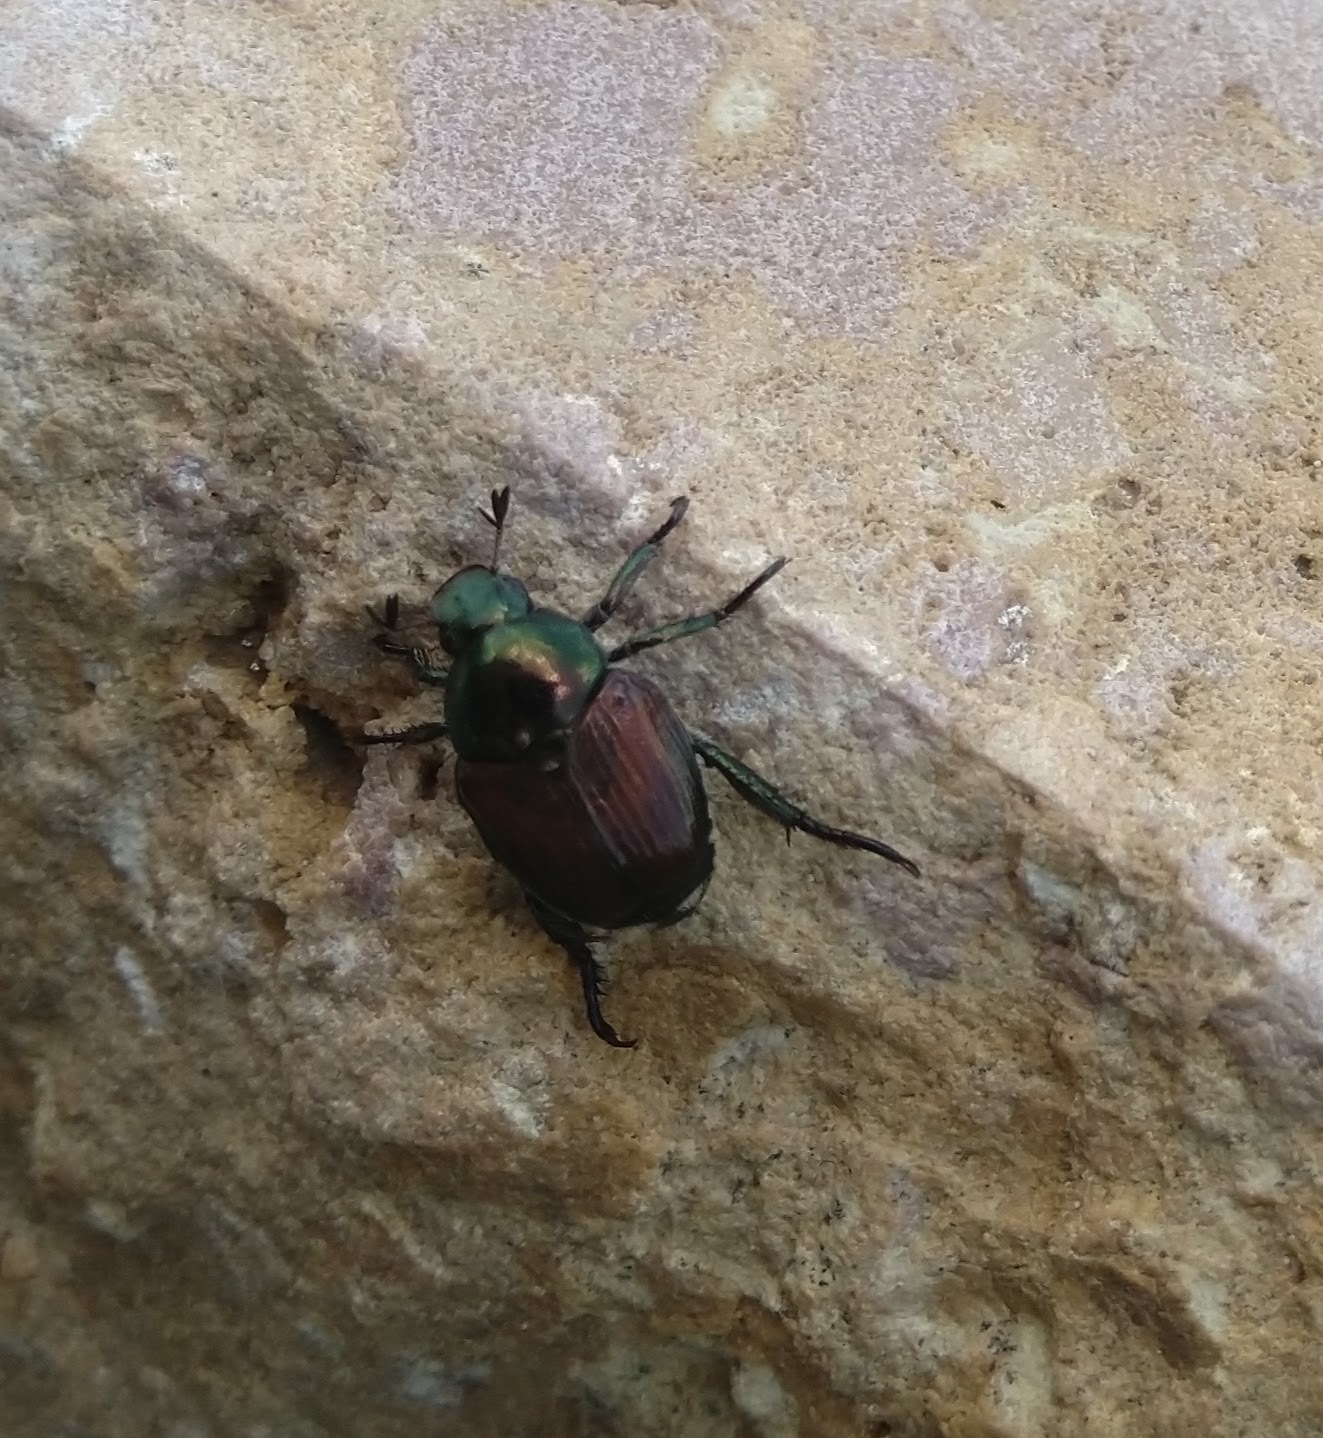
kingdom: Animalia
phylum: Arthropoda
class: Insecta
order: Coleoptera
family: Scarabaeidae
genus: Popillia
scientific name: Popillia japonica
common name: Japanese beetle
